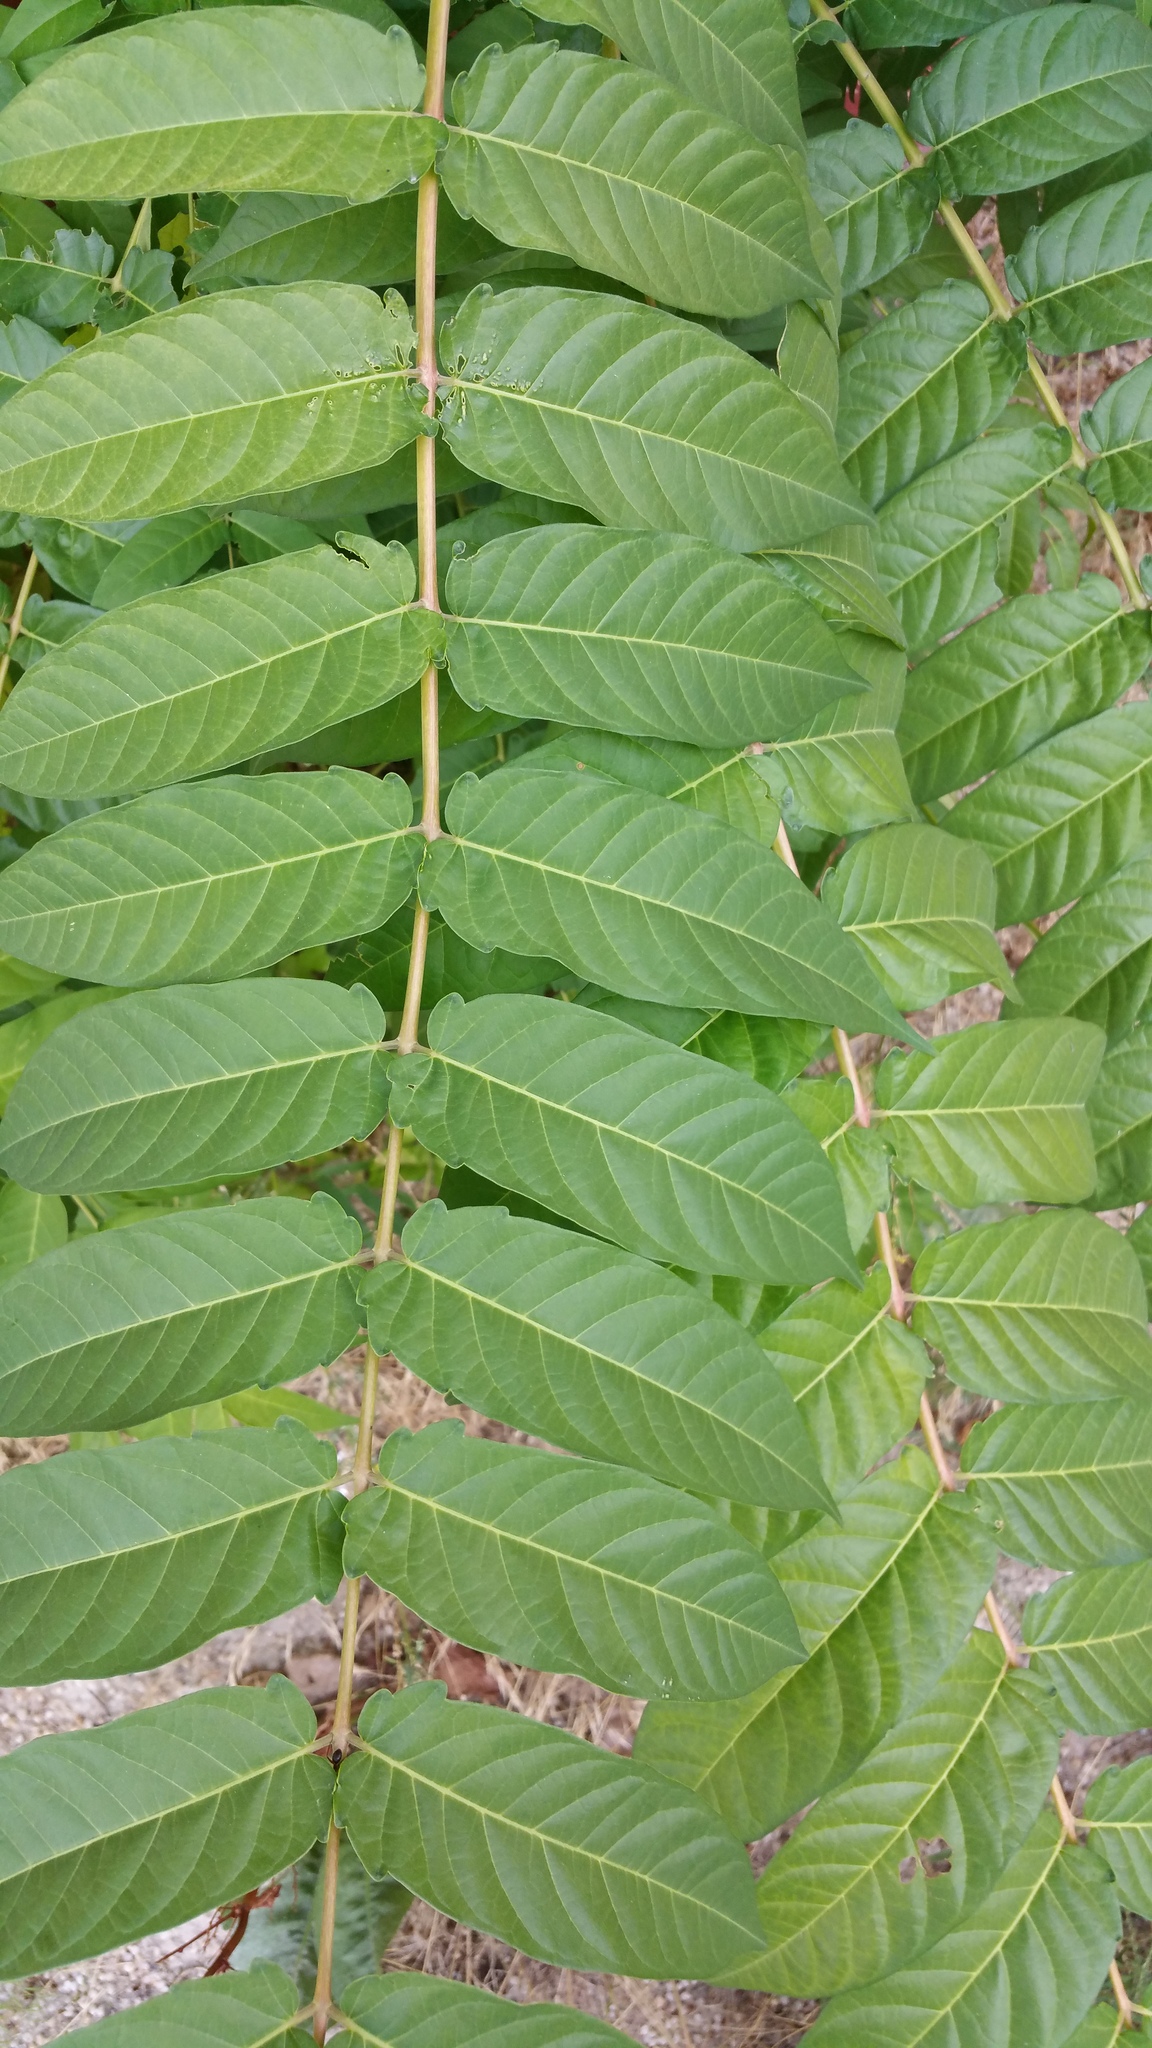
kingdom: Plantae
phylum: Tracheophyta
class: Magnoliopsida
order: Sapindales
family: Simaroubaceae
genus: Ailanthus
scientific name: Ailanthus altissima
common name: Tree-of-heaven
